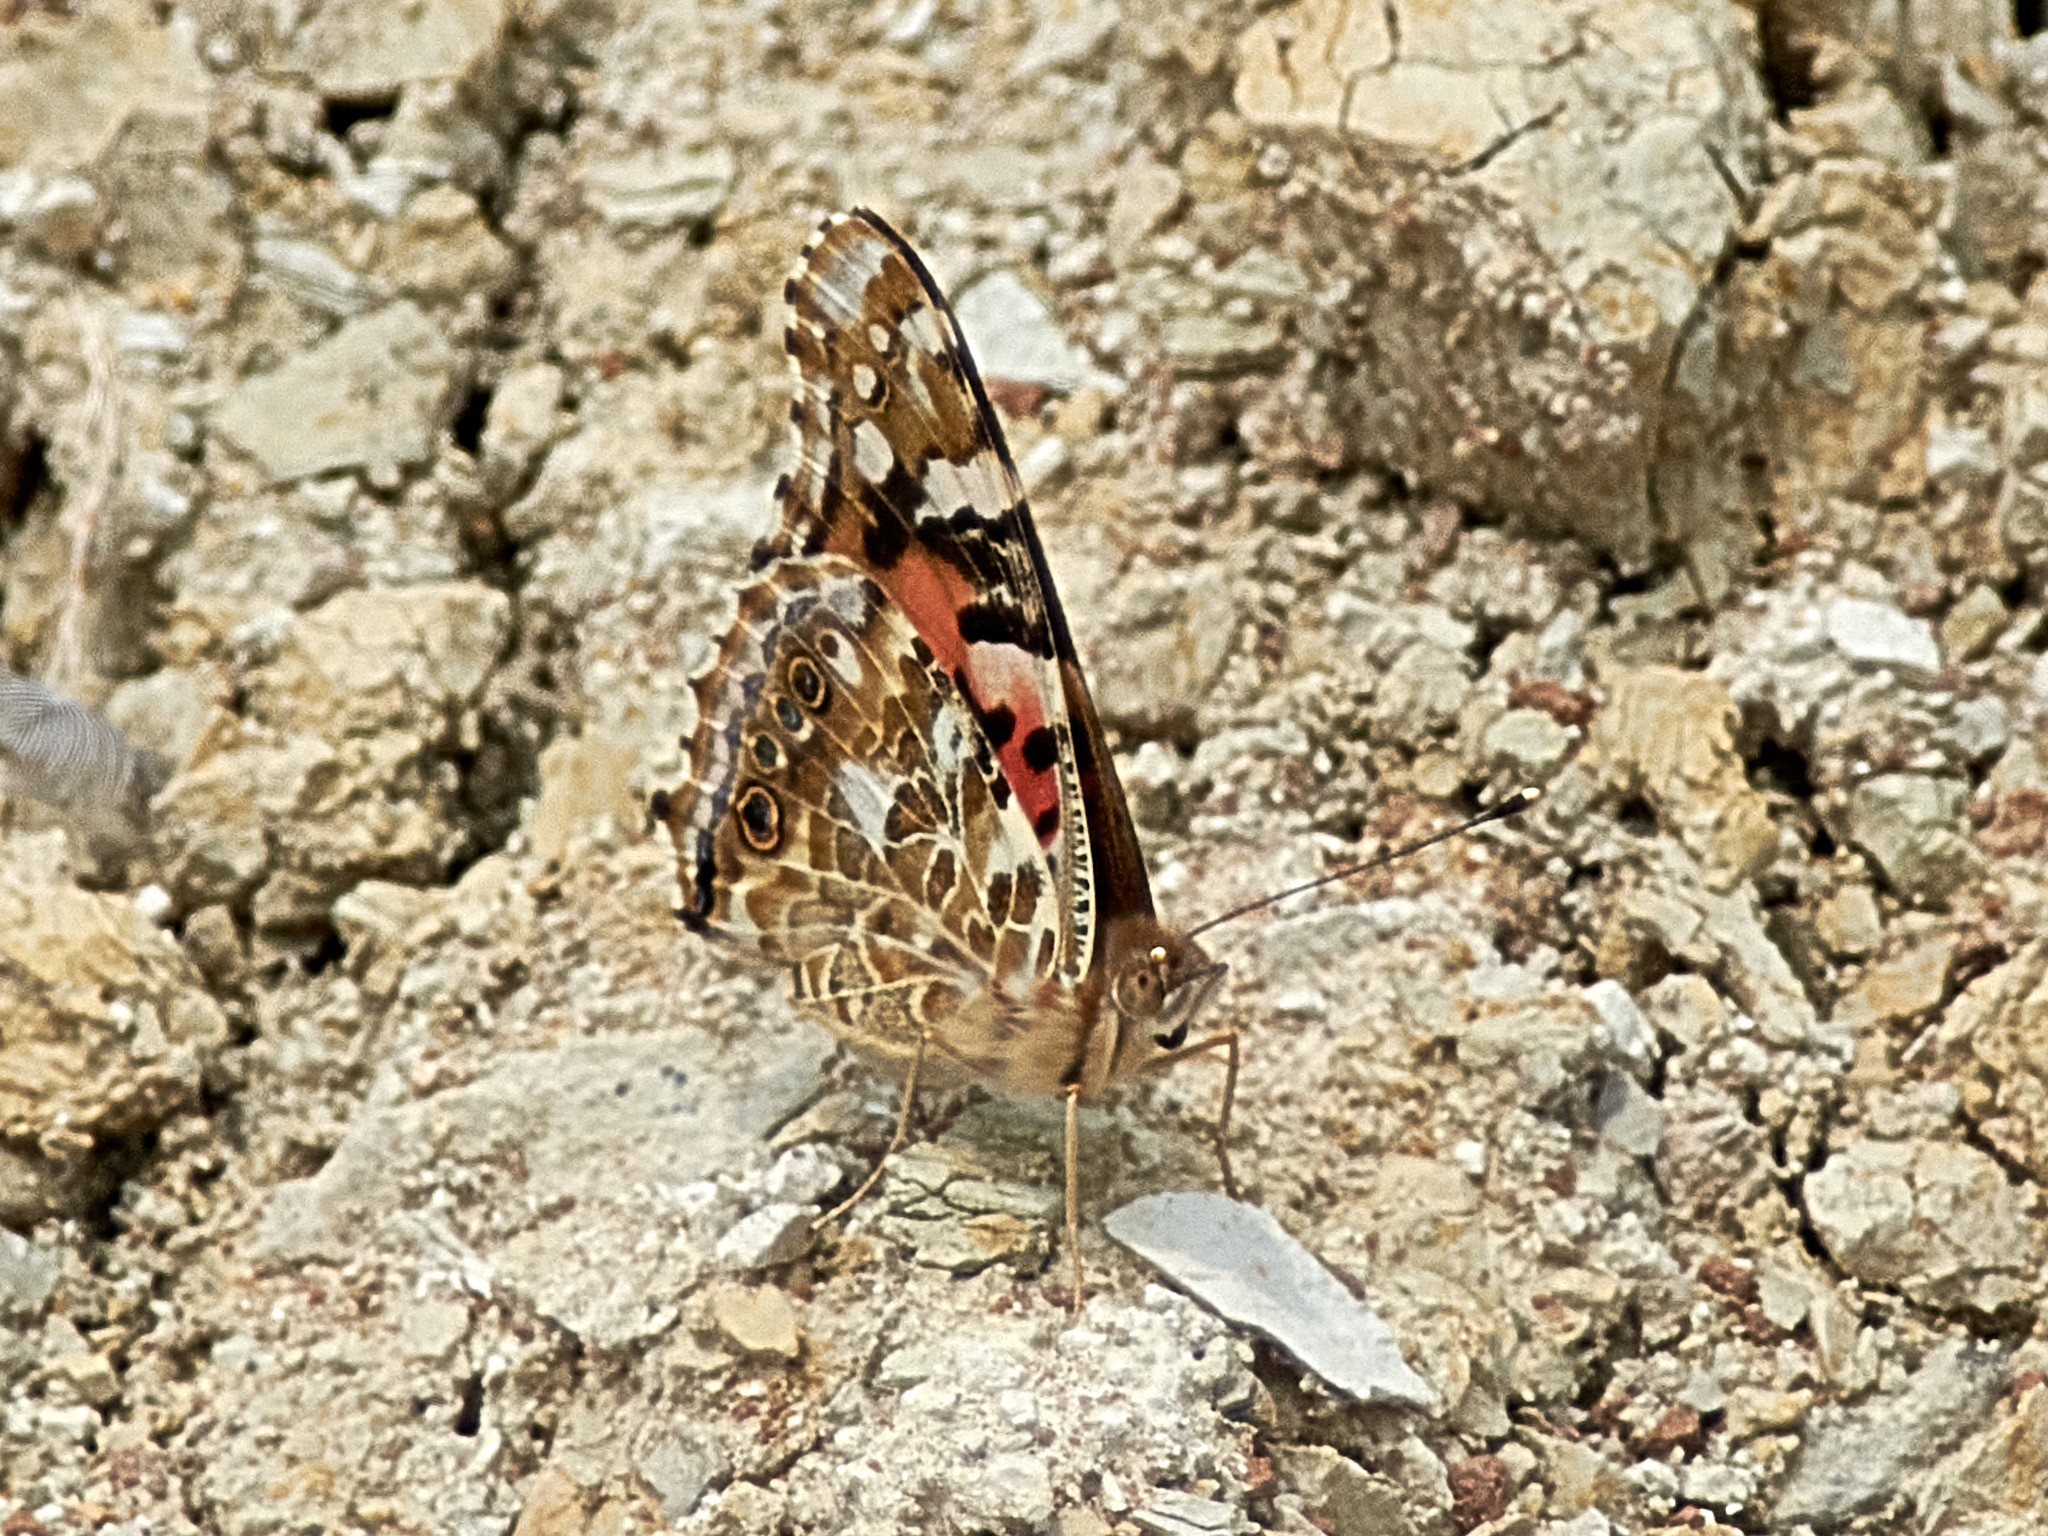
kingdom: Animalia
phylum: Arthropoda
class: Insecta
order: Lepidoptera
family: Nymphalidae
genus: Vanessa
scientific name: Vanessa cardui
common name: Painted lady
